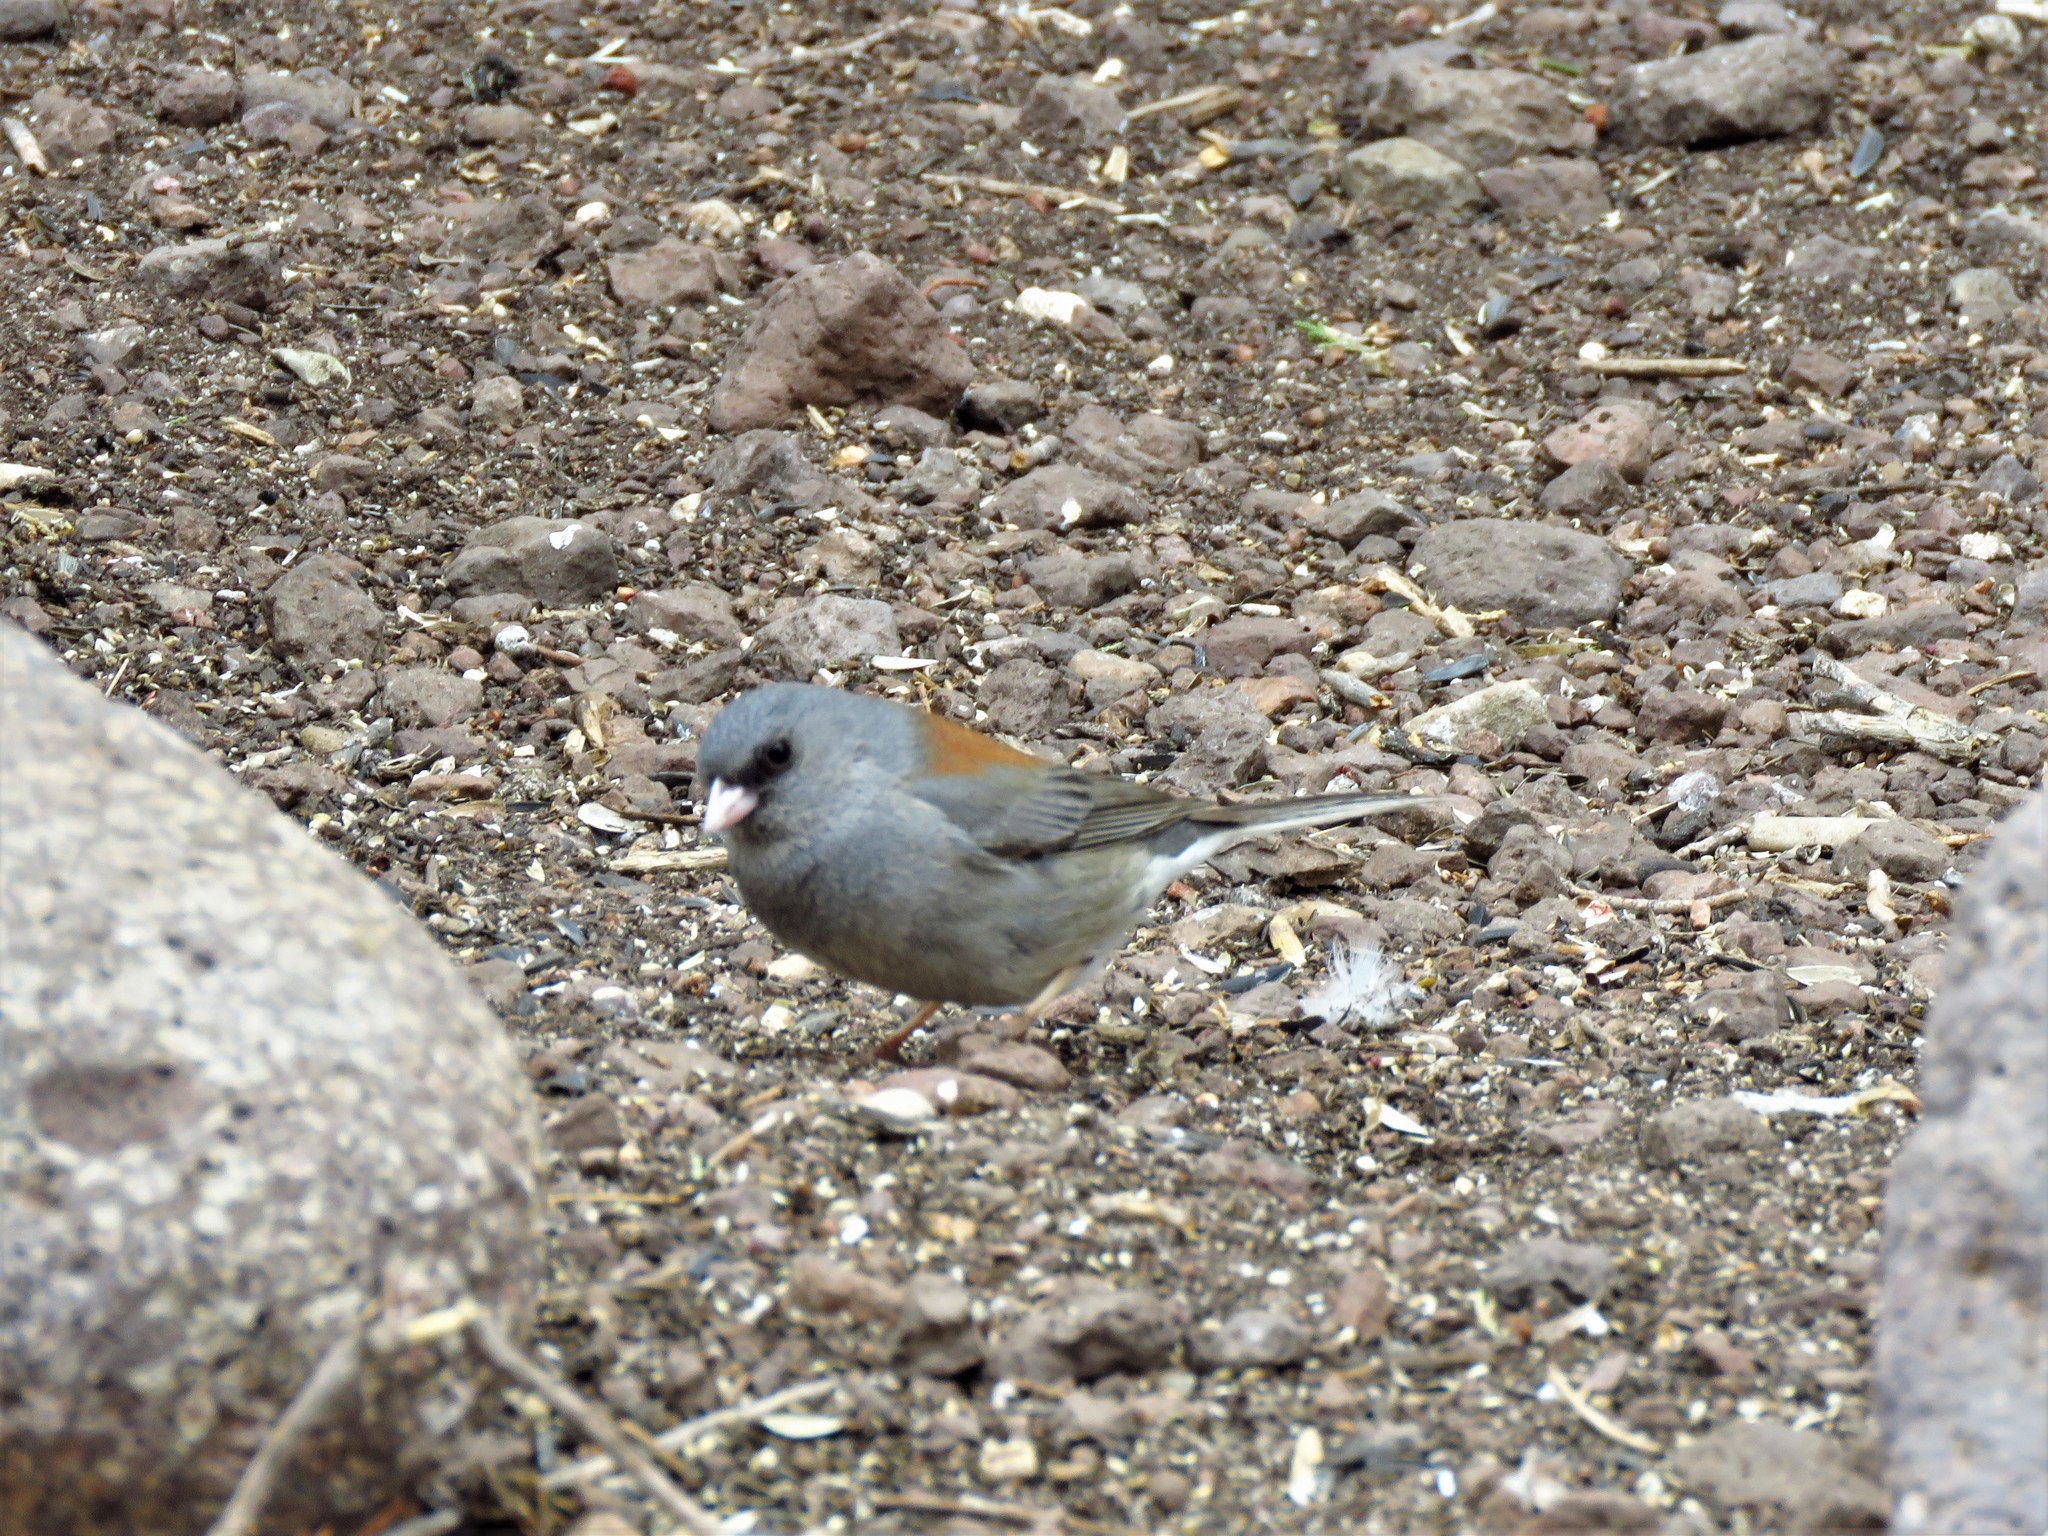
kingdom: Animalia
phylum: Chordata
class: Aves
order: Passeriformes
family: Passerellidae
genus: Junco
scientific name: Junco hyemalis
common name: Dark-eyed junco
